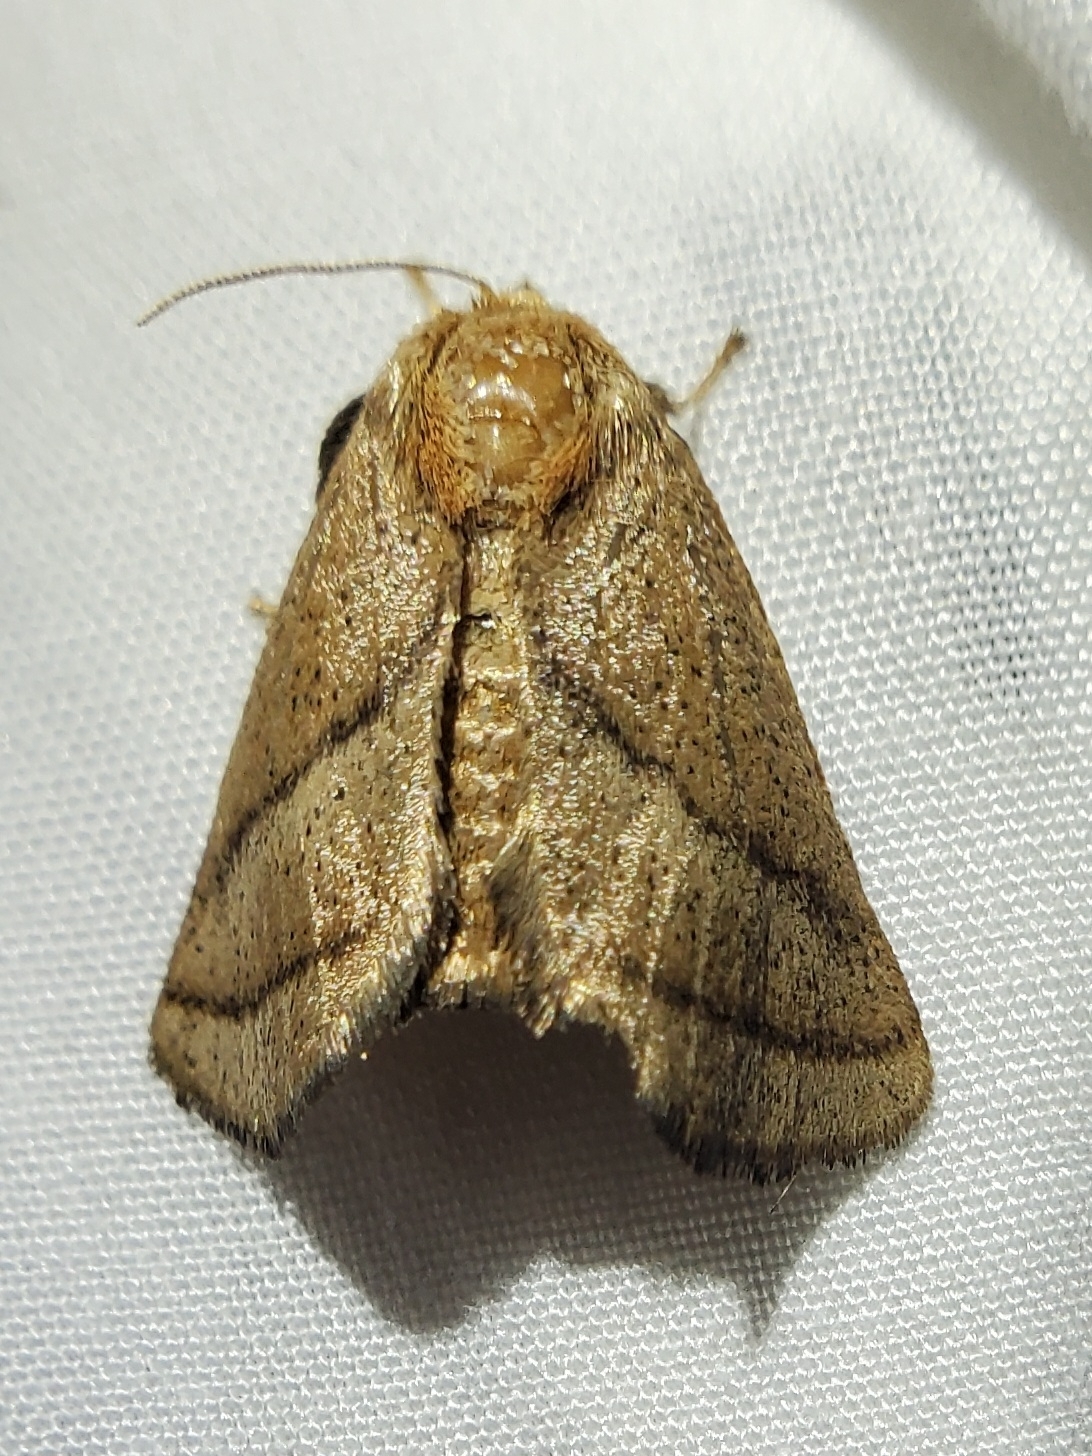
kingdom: Animalia
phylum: Arthropoda
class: Insecta
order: Lepidoptera
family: Limacodidae
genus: Natada
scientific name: Natada nasoni
